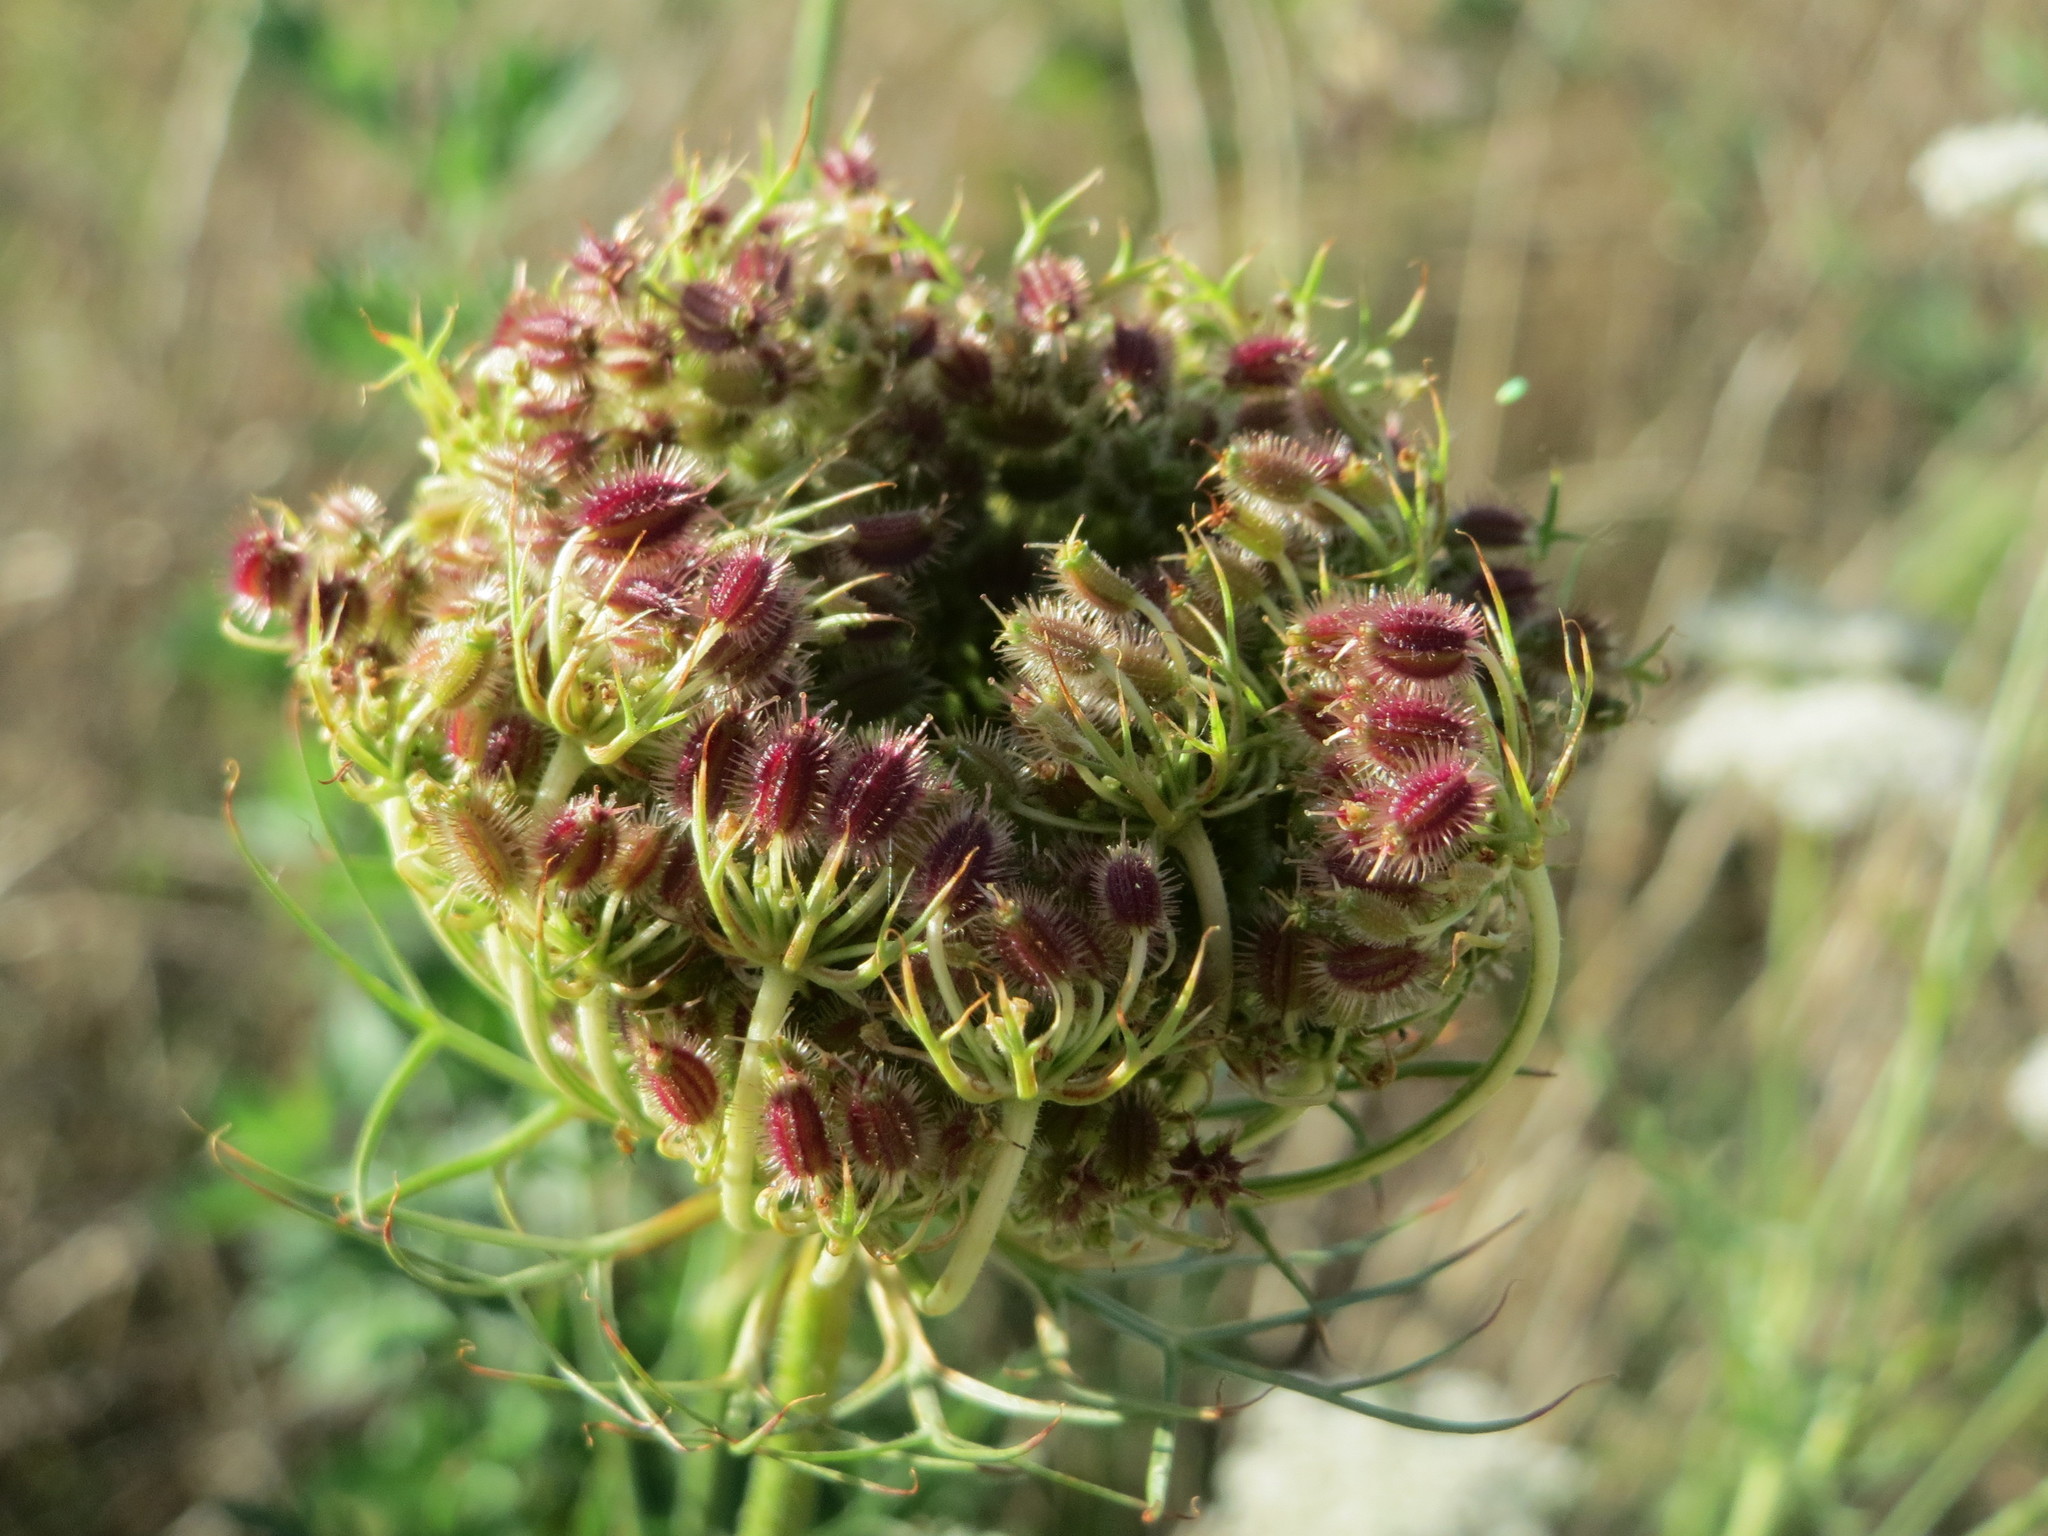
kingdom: Plantae
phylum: Tracheophyta
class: Magnoliopsida
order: Apiales
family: Apiaceae
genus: Daucus
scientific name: Daucus carota
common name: Wild carrot
